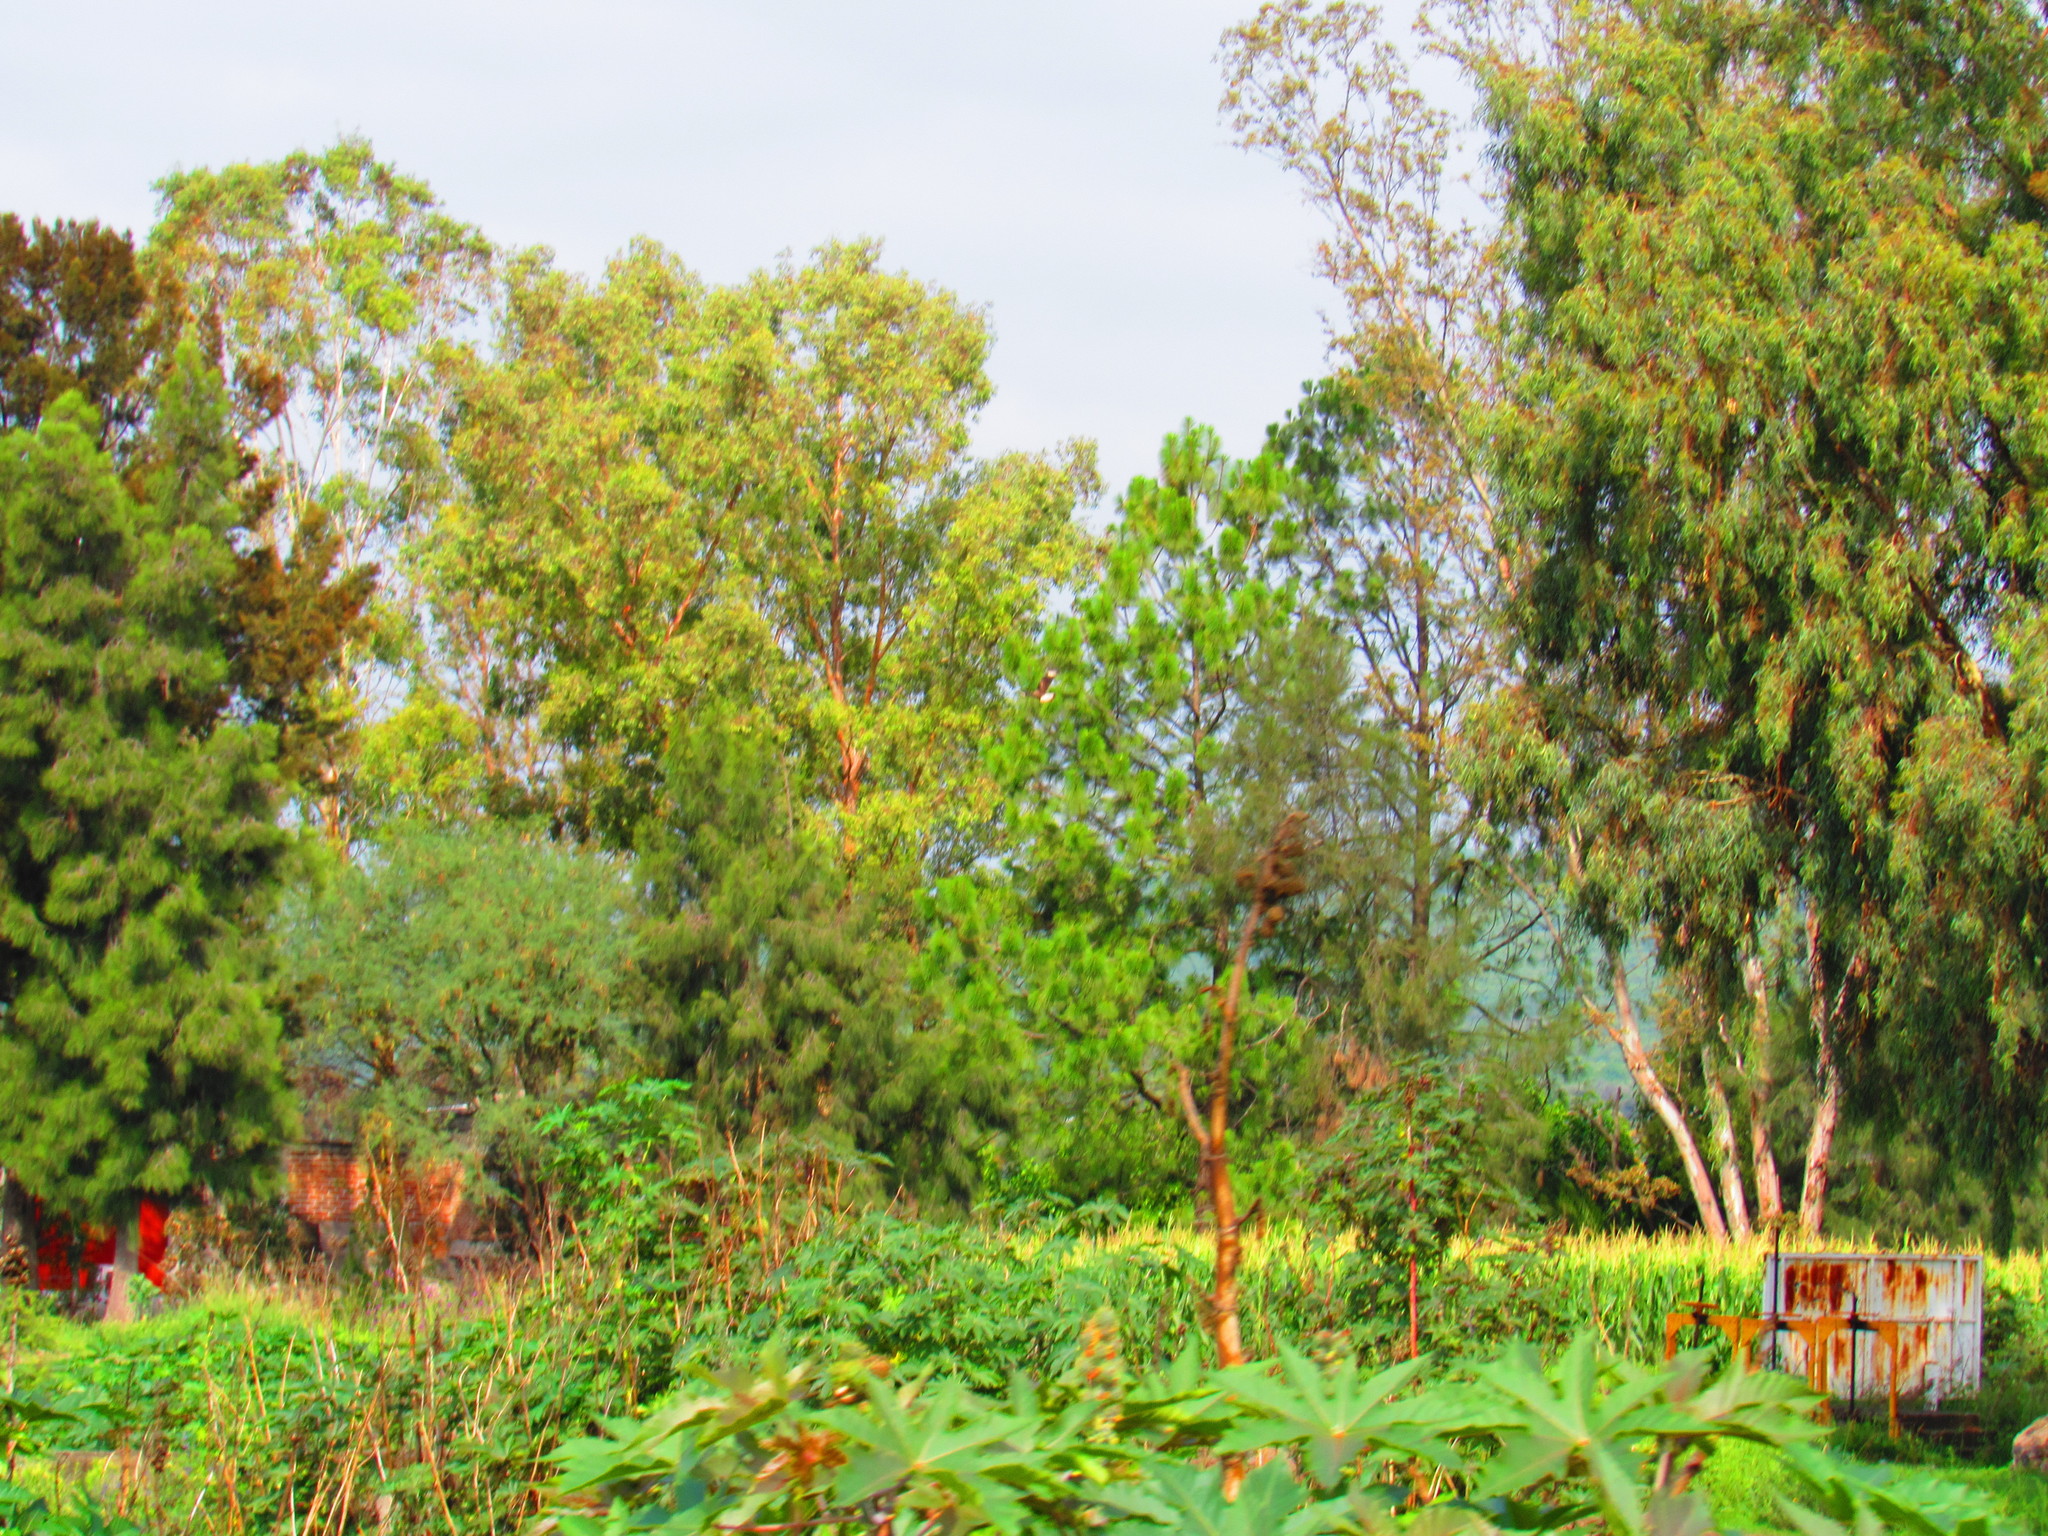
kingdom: Animalia
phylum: Chordata
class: Aves
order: Falconiformes
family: Falconidae
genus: Caracara
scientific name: Caracara plancus
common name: Southern caracara
